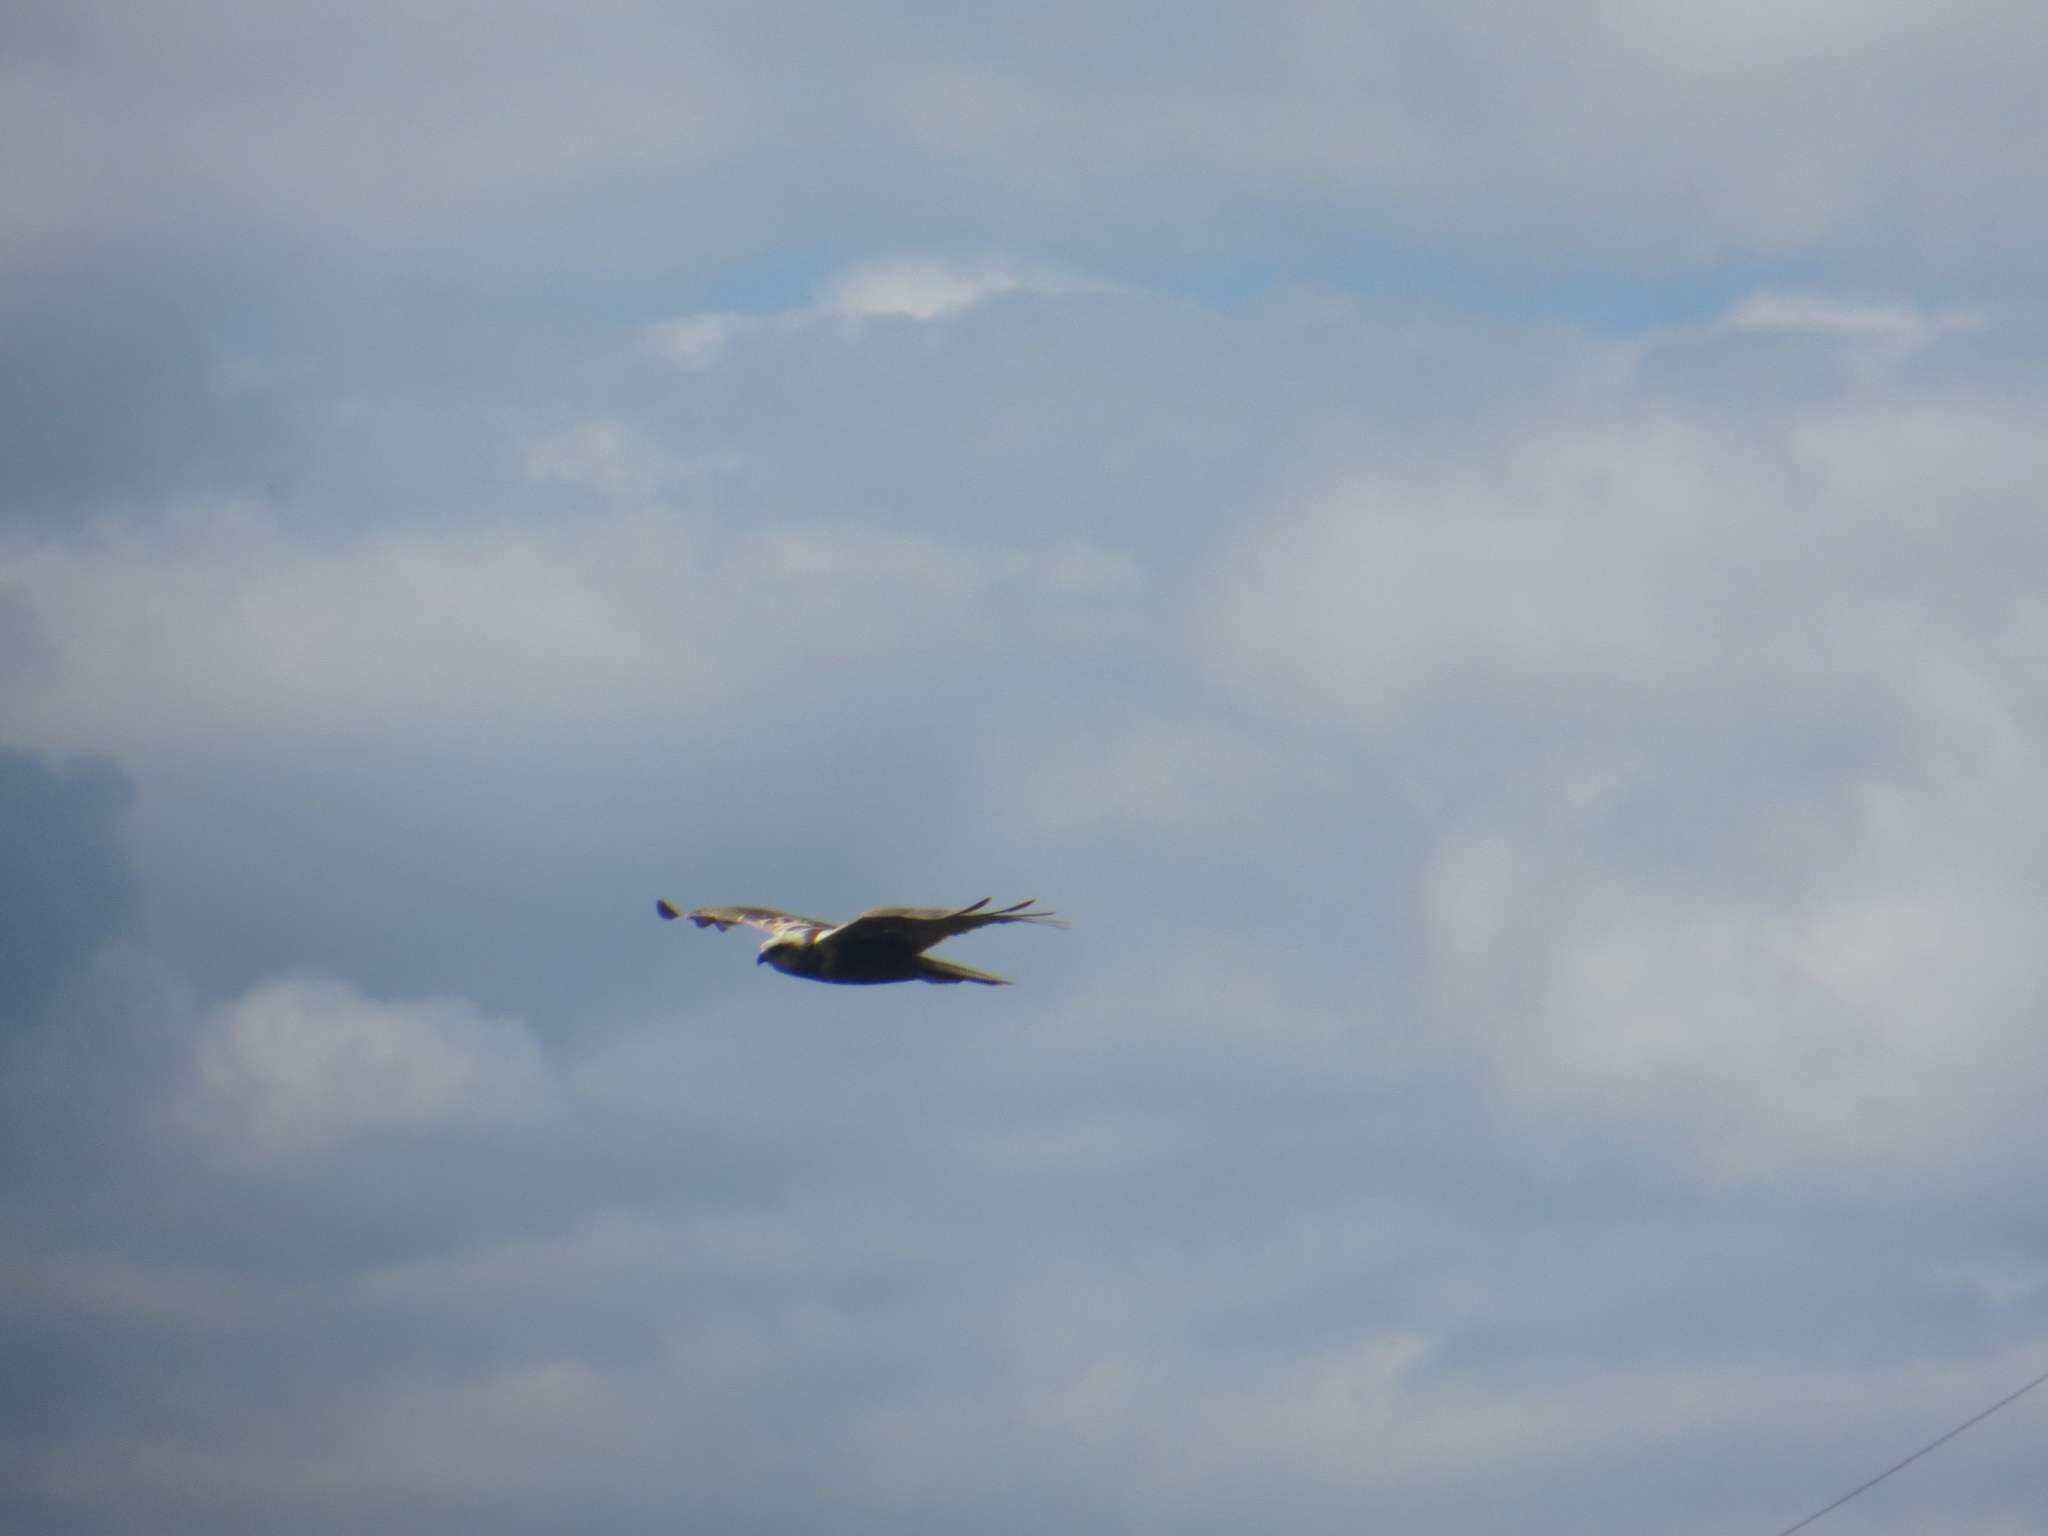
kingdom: Animalia
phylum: Chordata
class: Aves
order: Accipitriformes
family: Accipitridae
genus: Circus
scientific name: Circus aeruginosus
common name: Western marsh harrier
